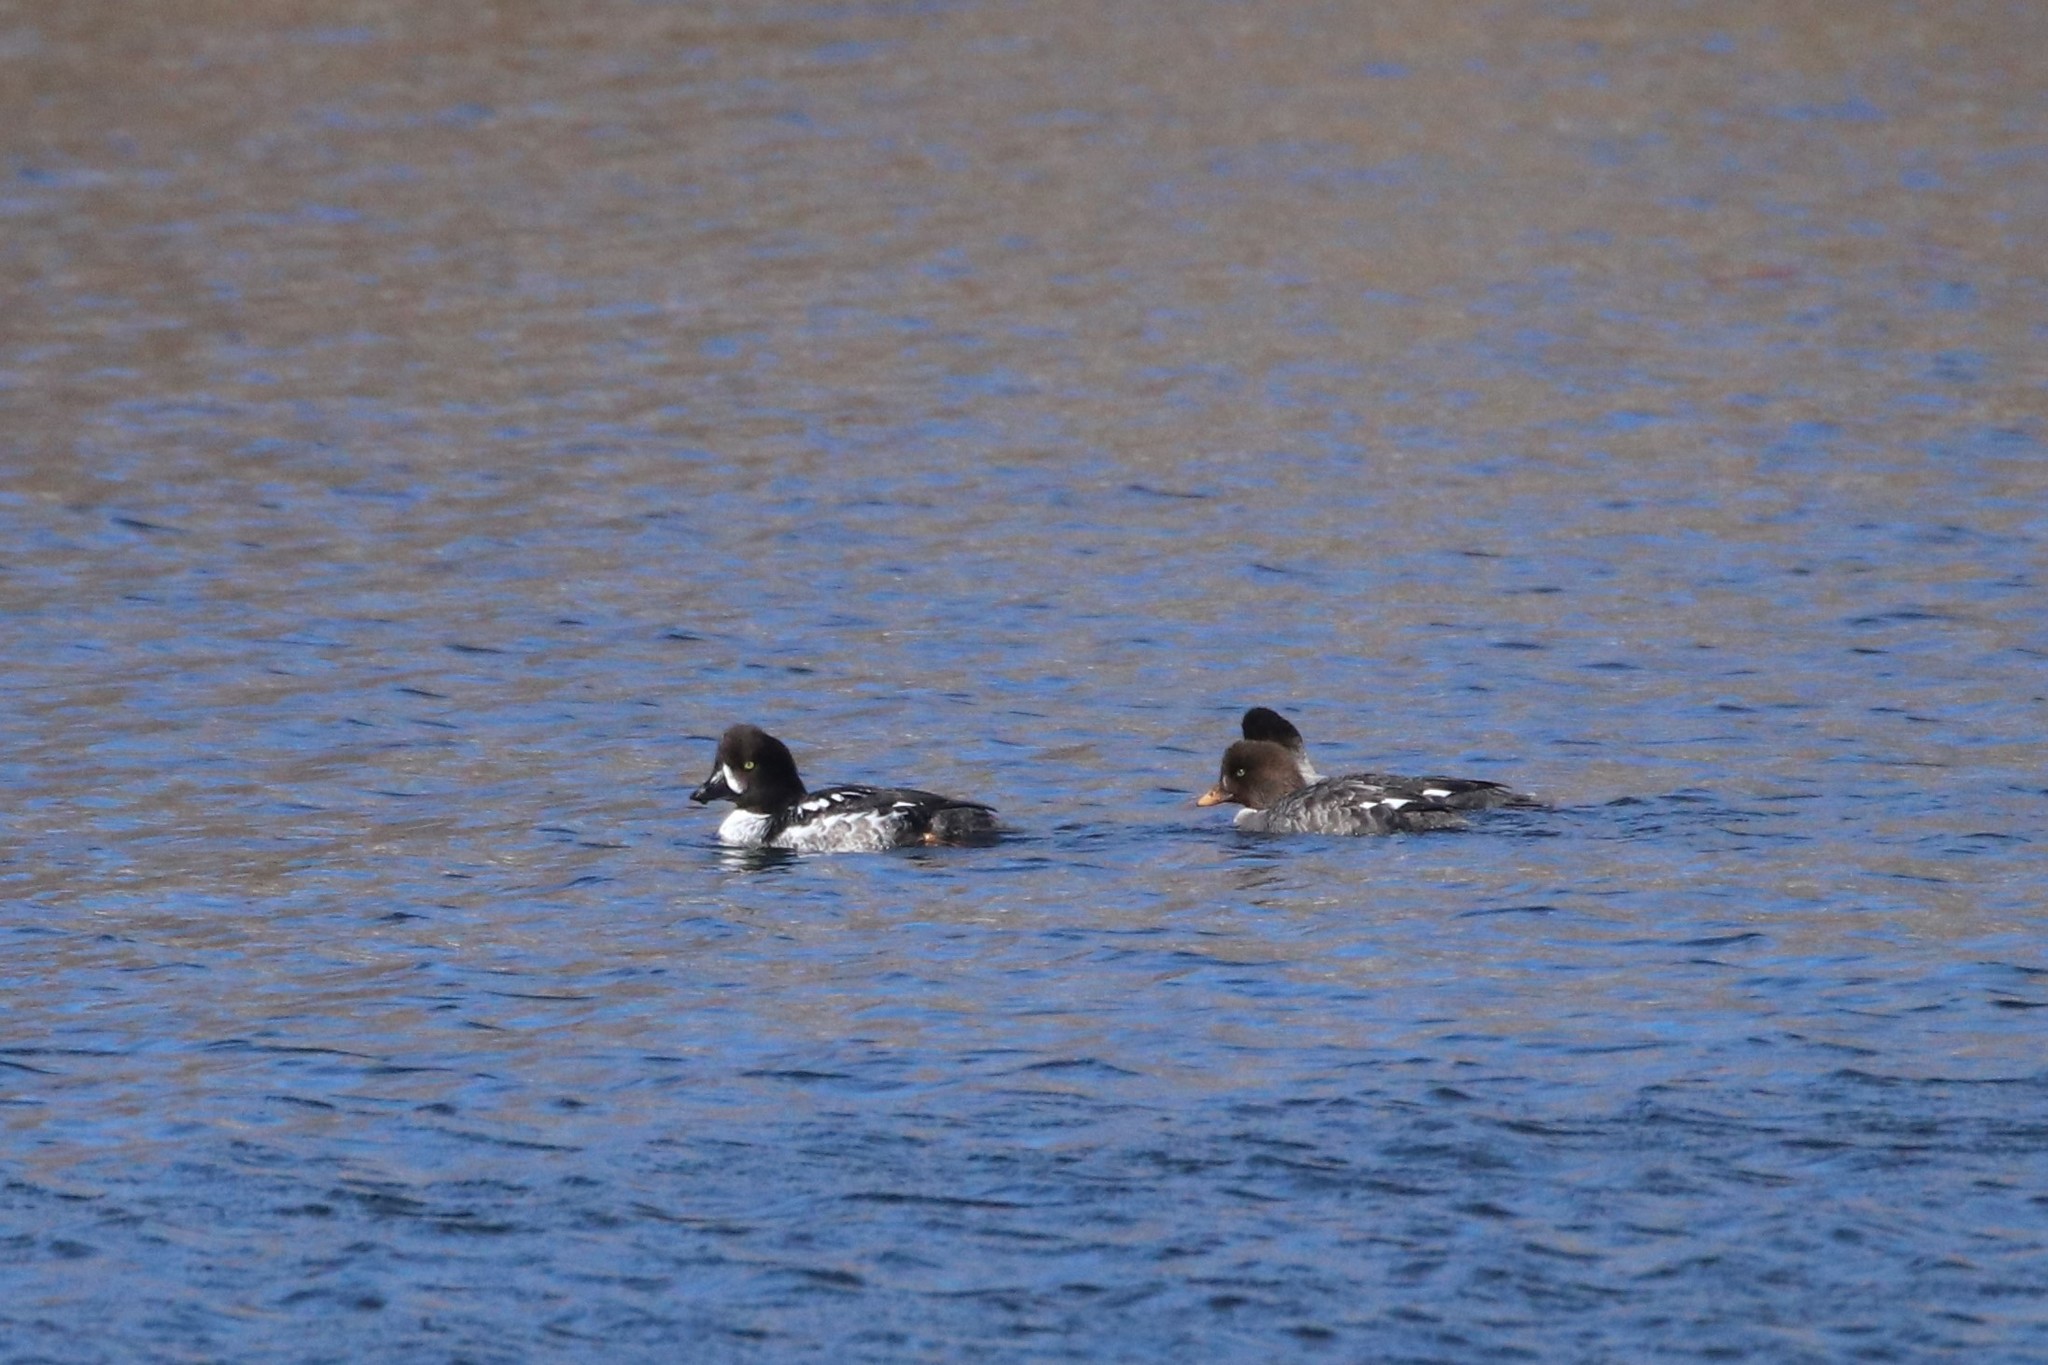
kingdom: Animalia
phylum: Chordata
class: Aves
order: Anseriformes
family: Anatidae
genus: Bucephala
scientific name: Bucephala islandica
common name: Barrow's goldeneye
